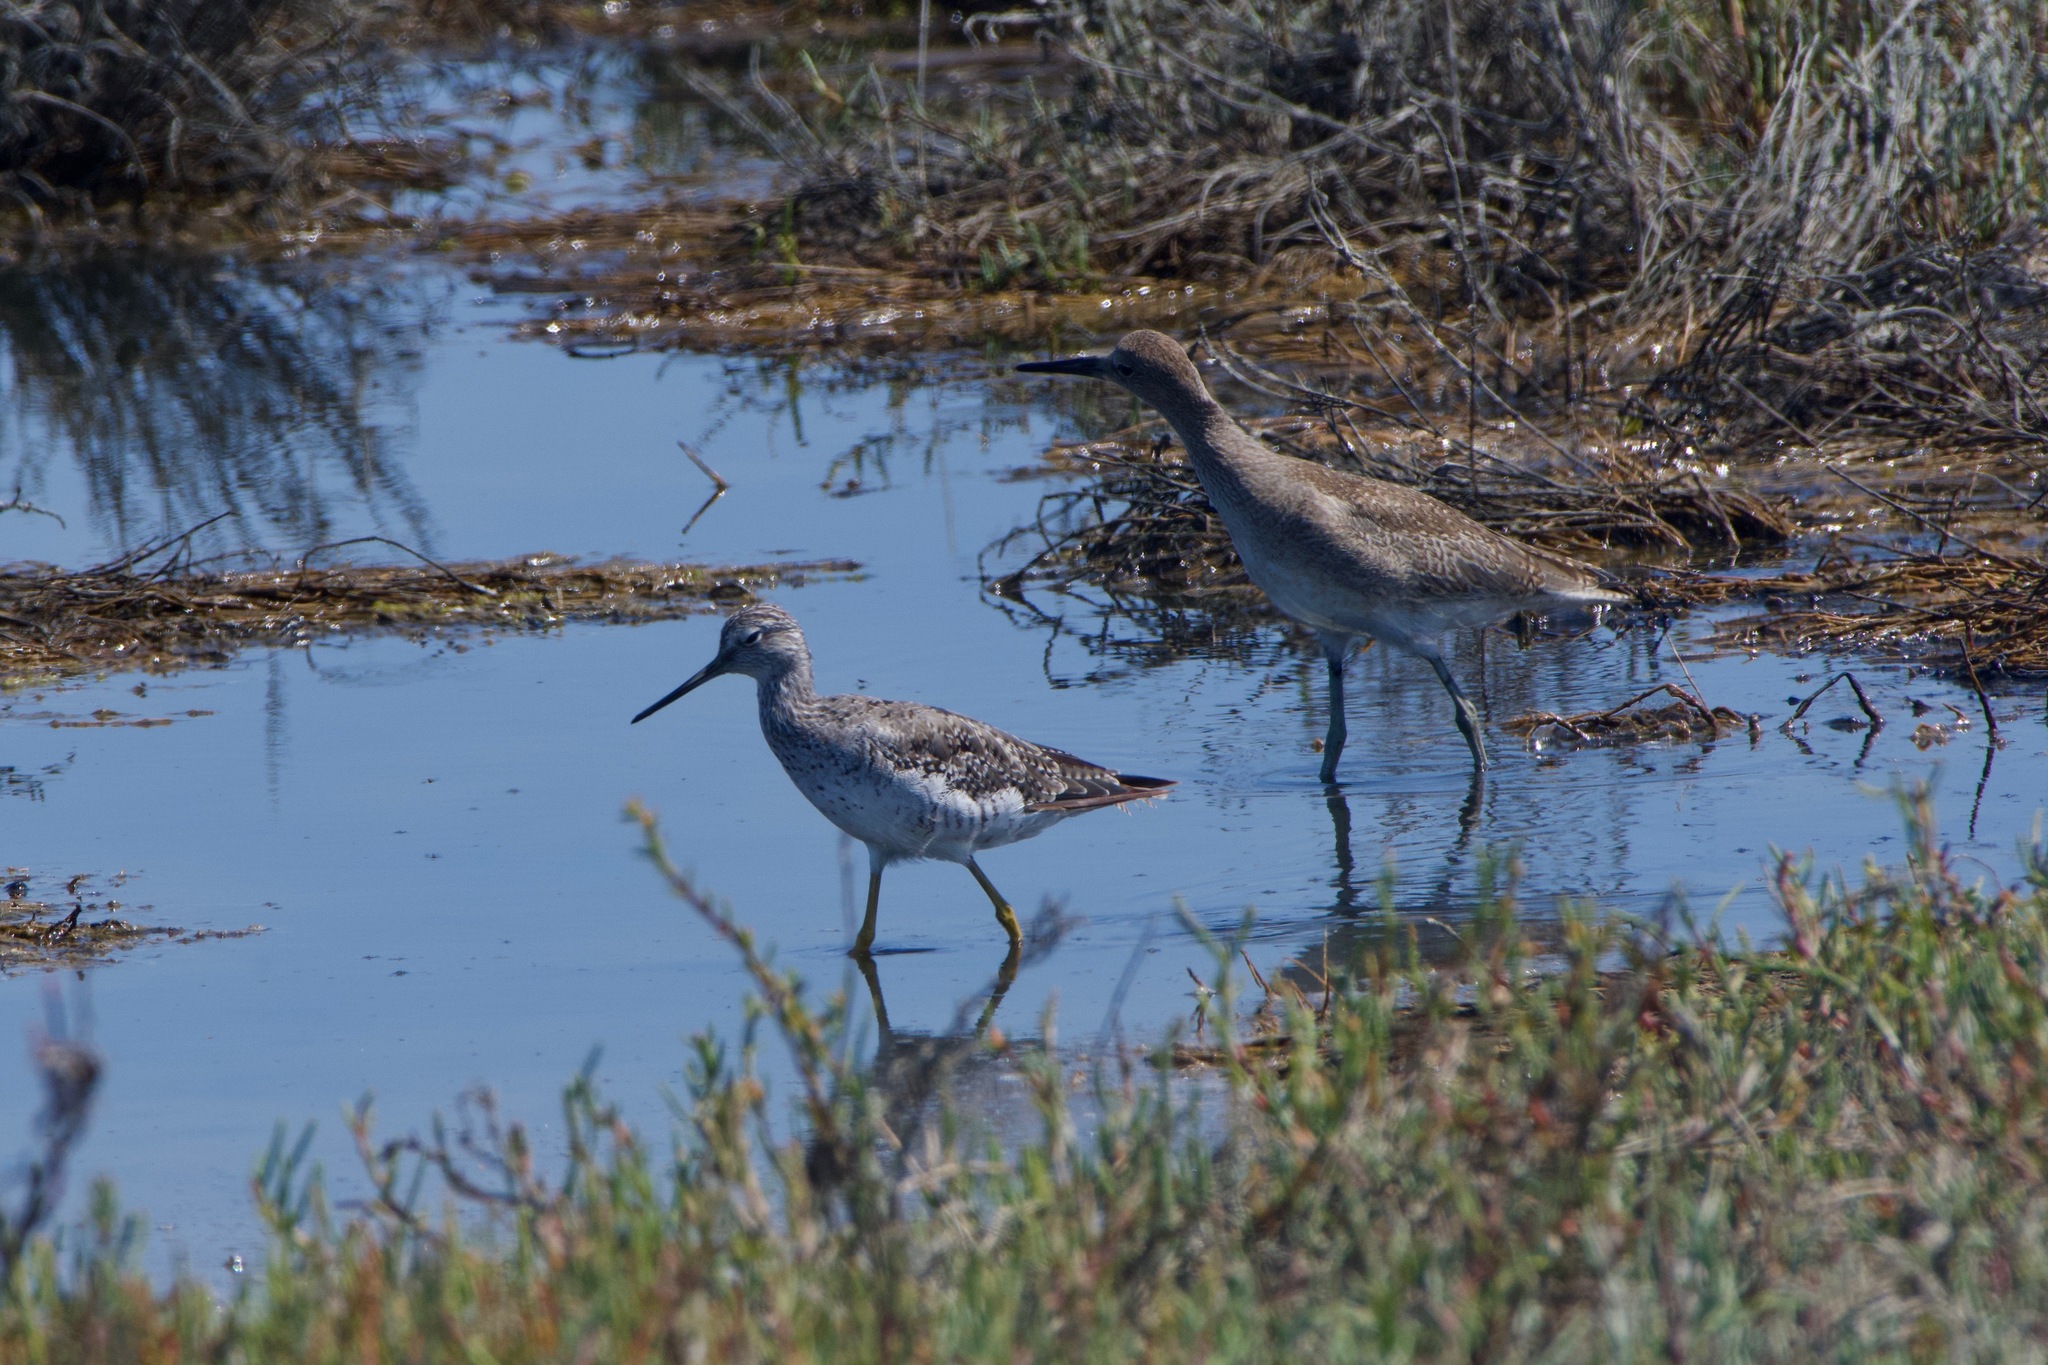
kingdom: Animalia
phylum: Chordata
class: Aves
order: Charadriiformes
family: Scolopacidae
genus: Tringa
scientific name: Tringa melanoleuca
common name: Greater yellowlegs
